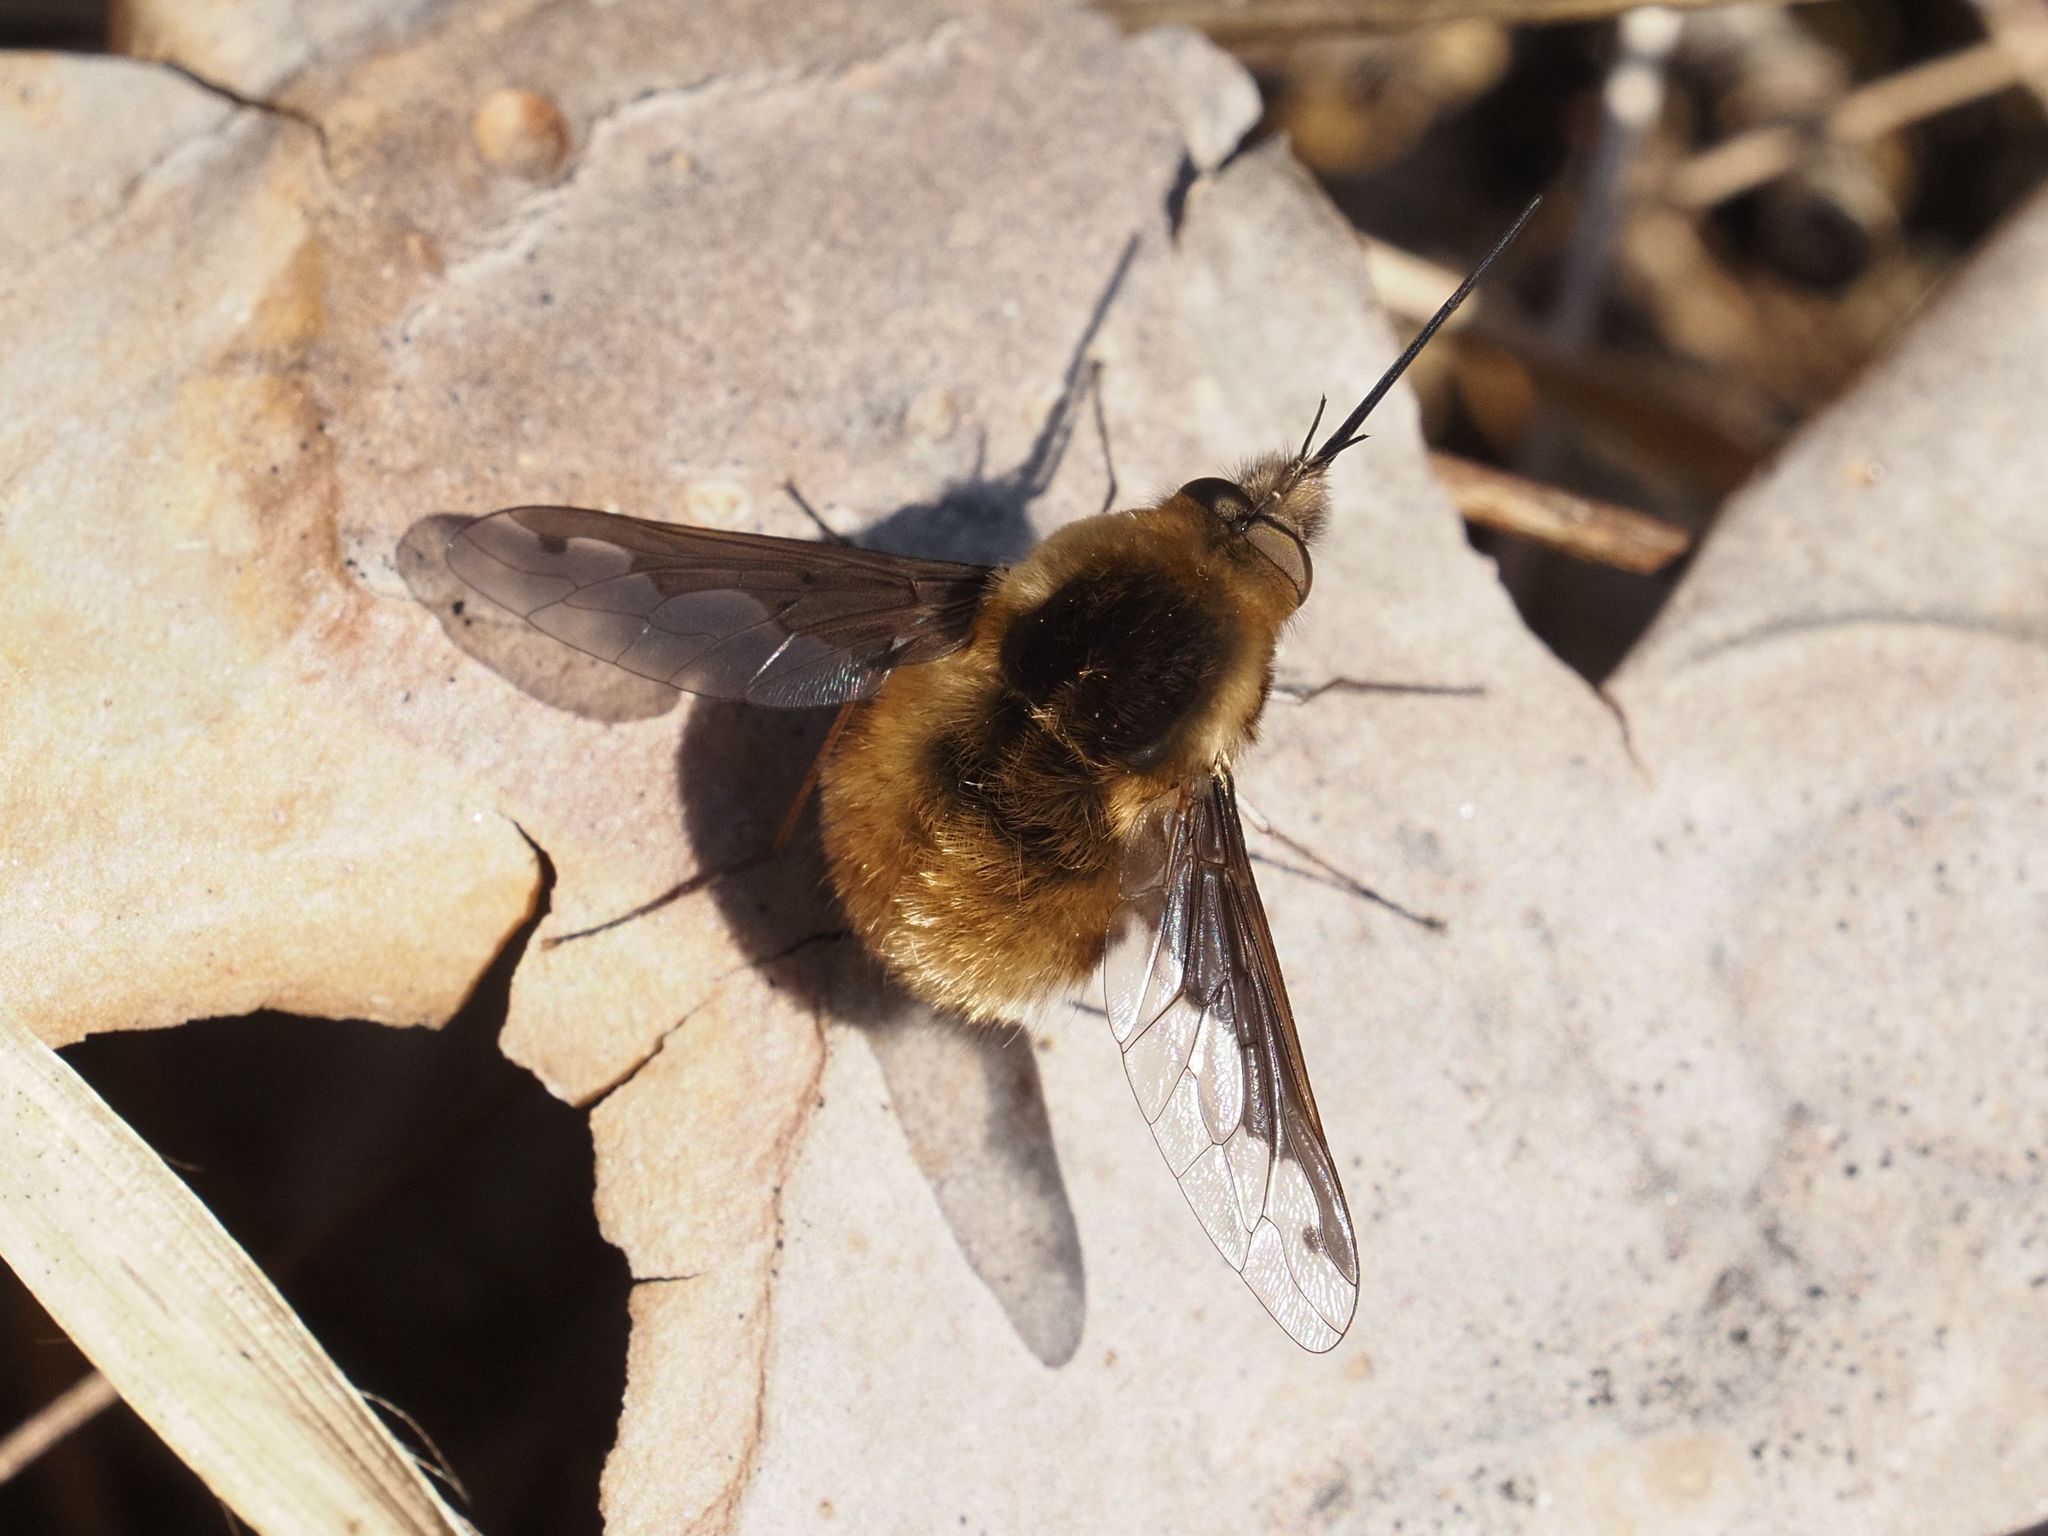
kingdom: Animalia
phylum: Arthropoda
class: Insecta
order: Diptera
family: Bombyliidae
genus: Bombylius
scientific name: Bombylius major
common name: Bee fly
